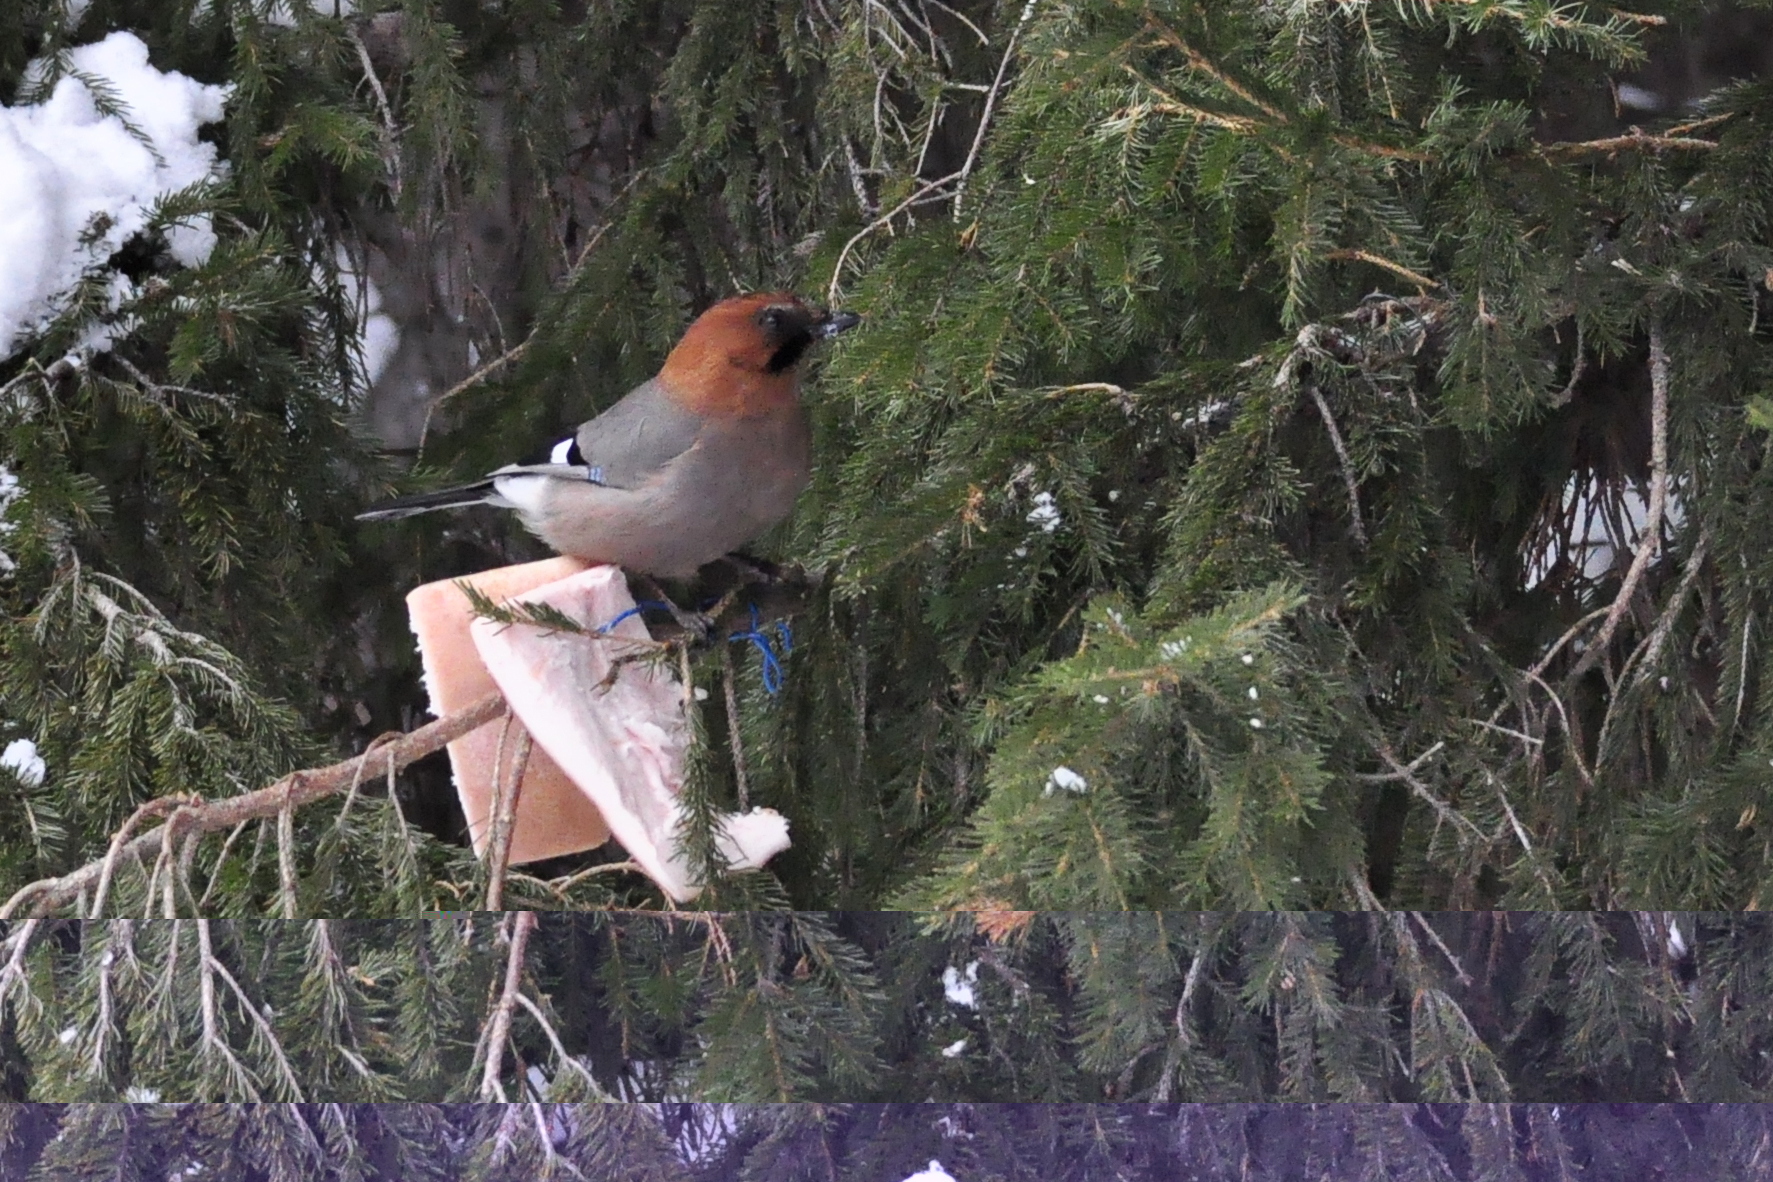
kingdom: Animalia
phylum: Chordata
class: Aves
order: Passeriformes
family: Corvidae
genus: Garrulus
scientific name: Garrulus glandarius
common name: Eurasian jay
